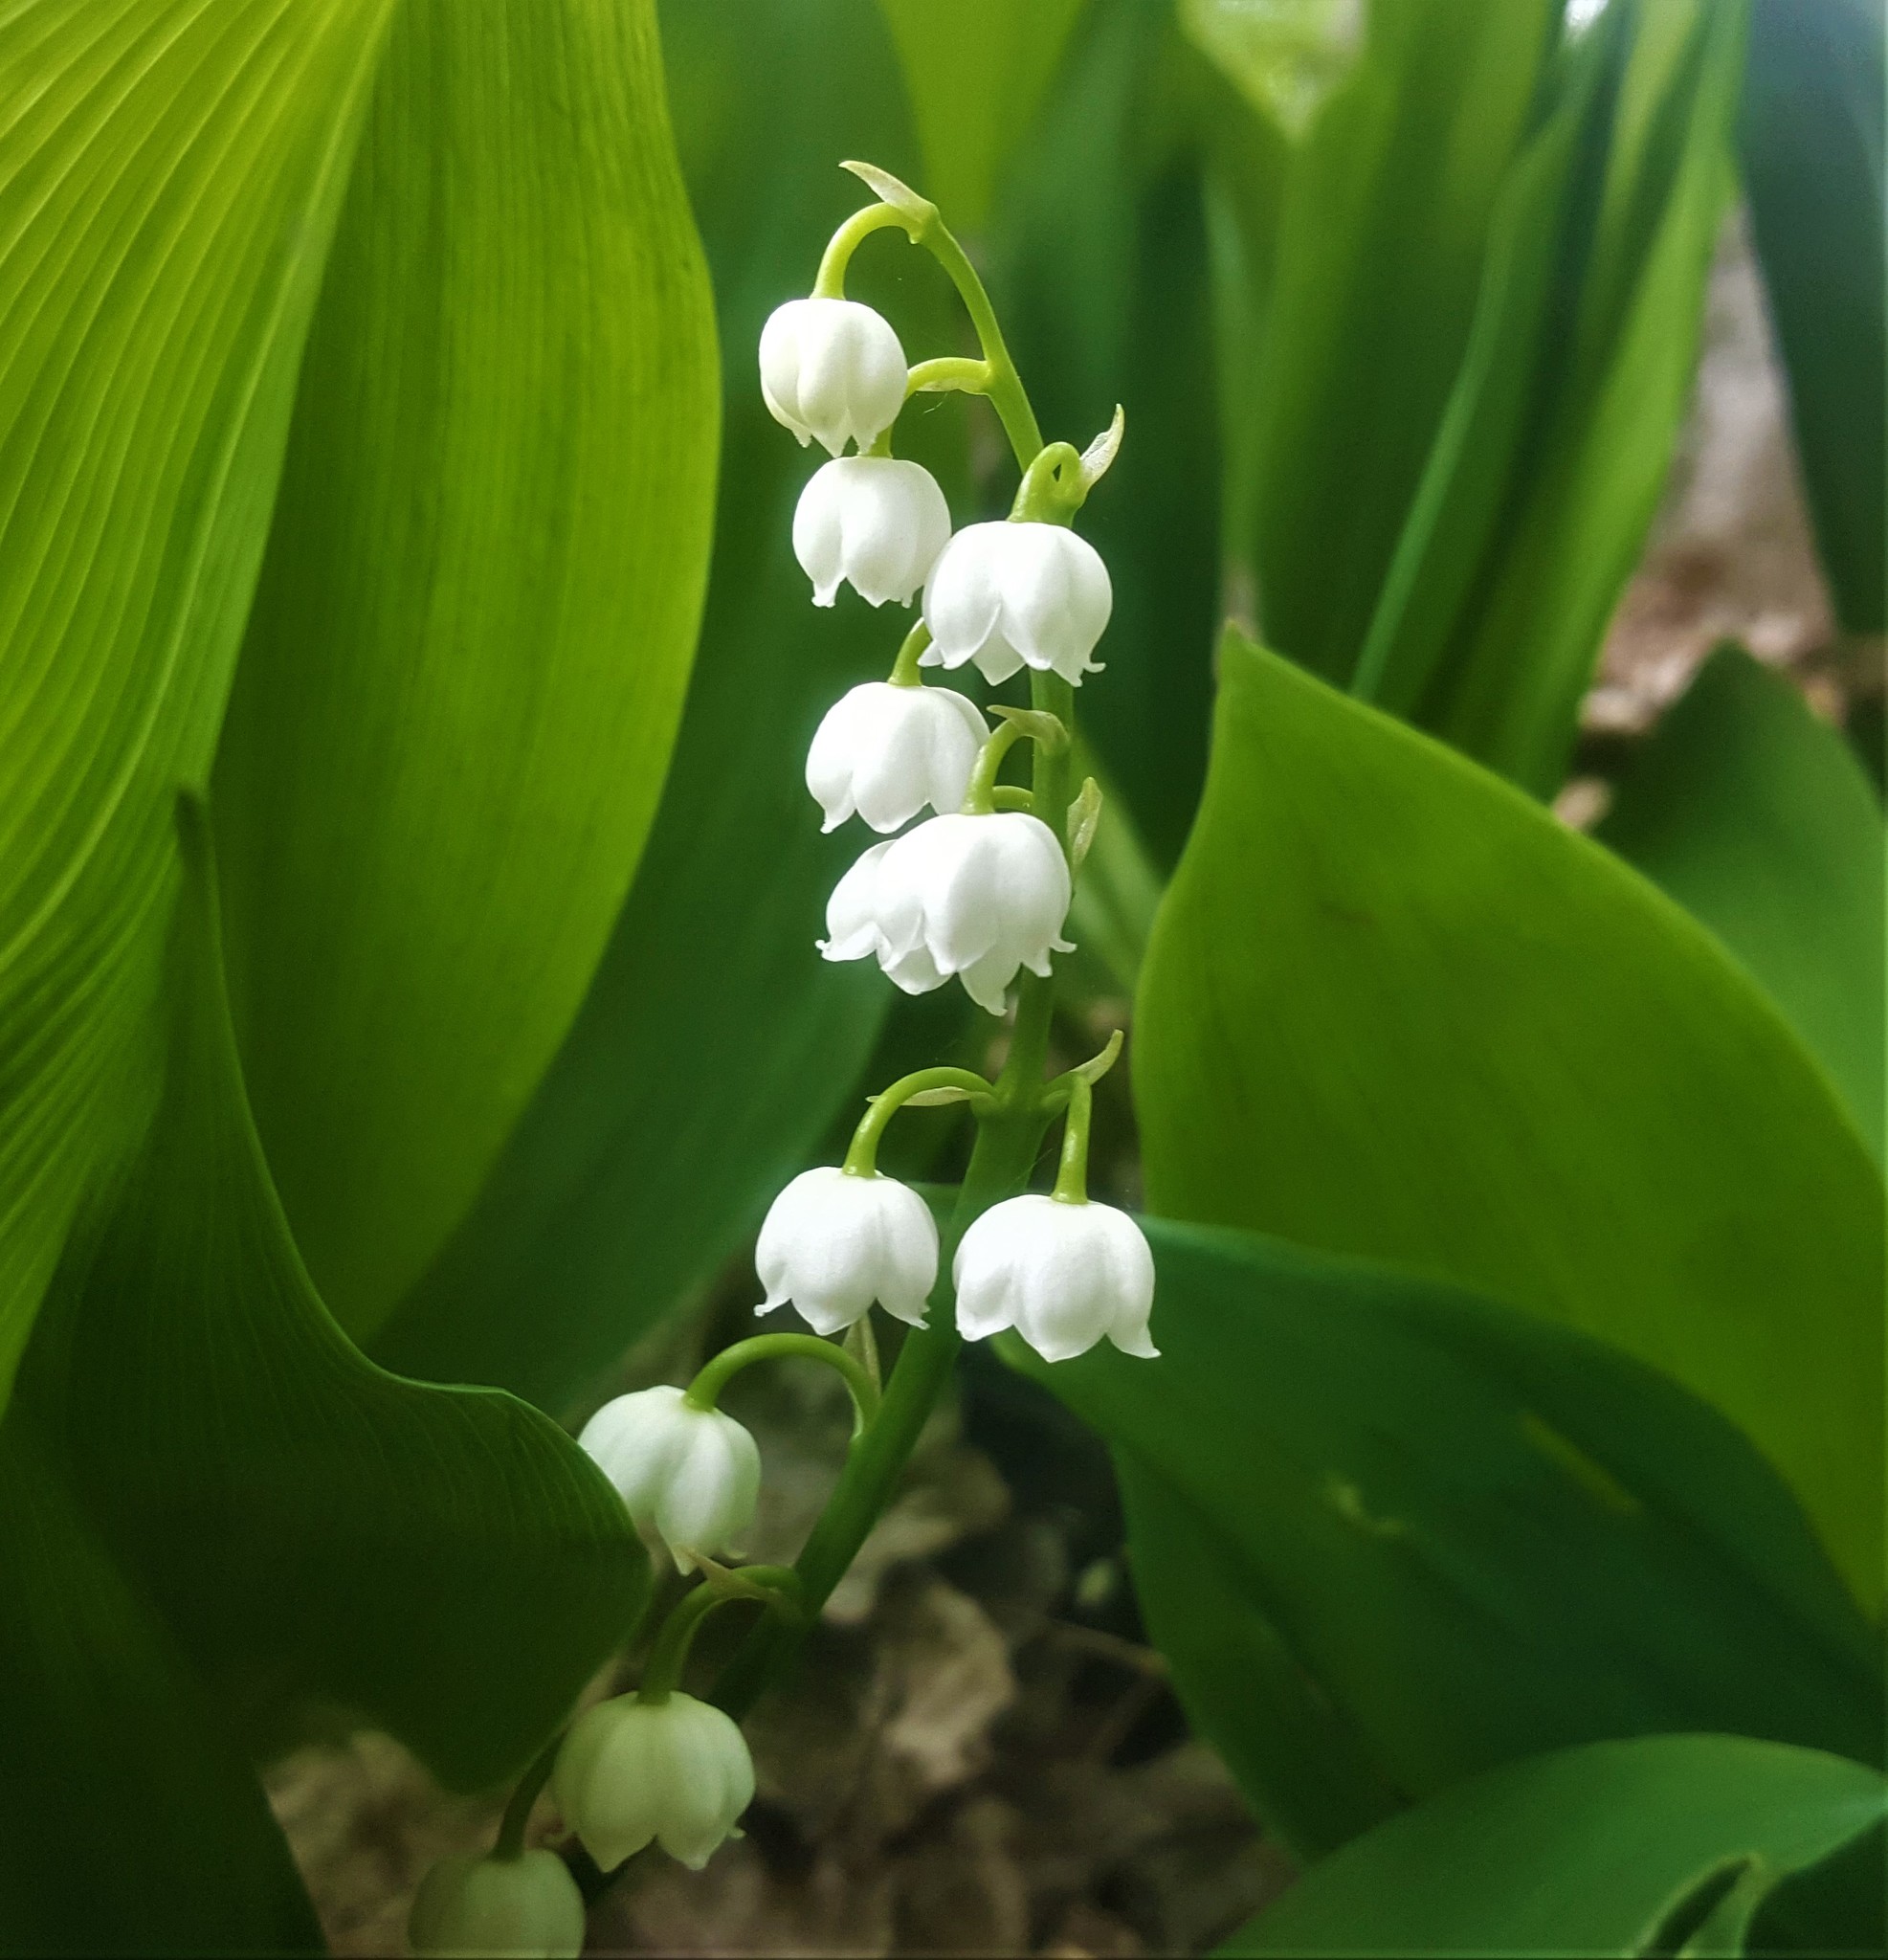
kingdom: Plantae
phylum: Tracheophyta
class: Liliopsida
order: Asparagales
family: Asparagaceae
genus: Convallaria
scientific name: Convallaria majalis
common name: Lily-of-the-valley
